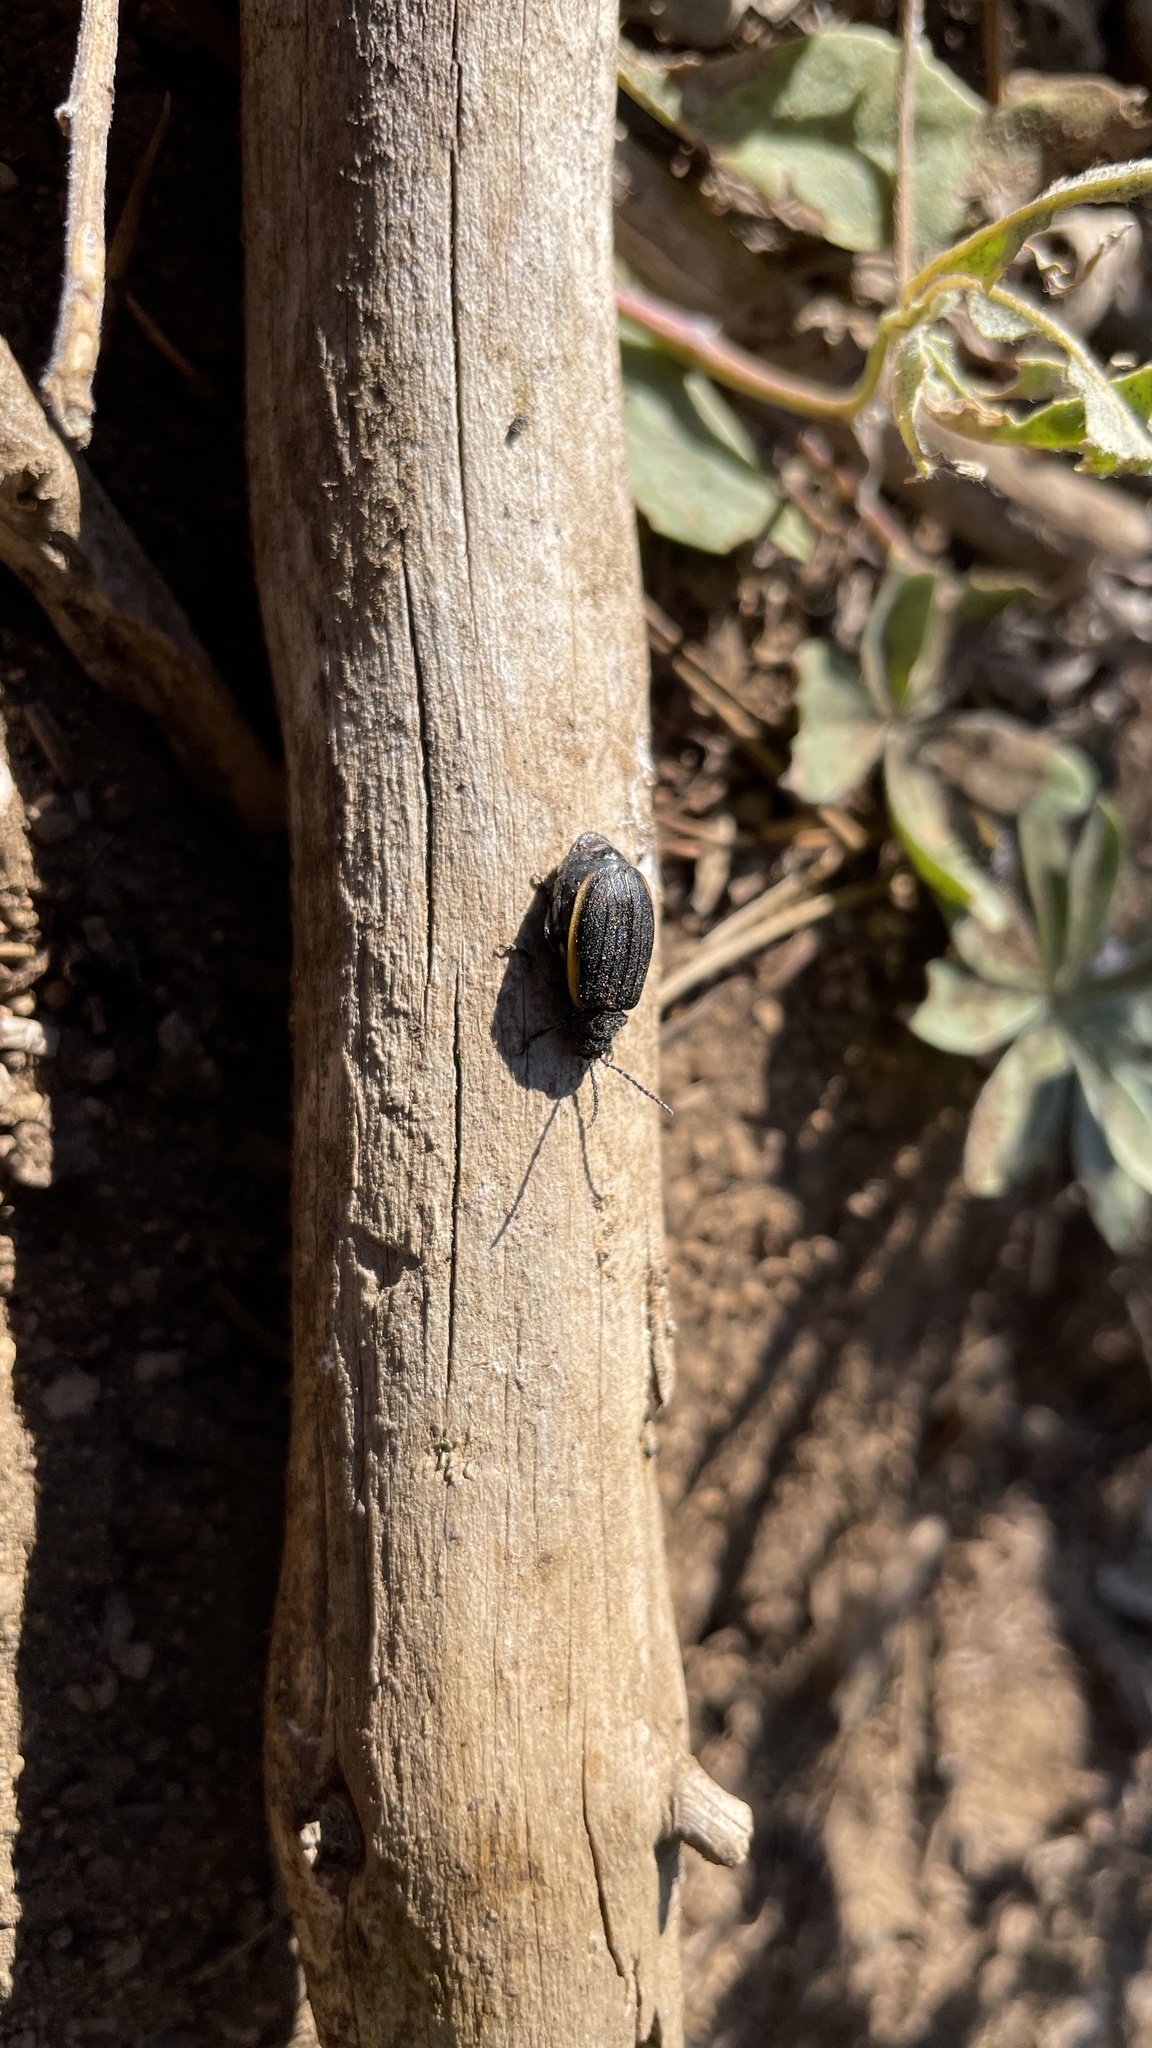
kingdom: Animalia
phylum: Arthropoda
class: Insecta
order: Coleoptera
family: Chrysomelidae
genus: Galeruca
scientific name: Galeruca rudis
